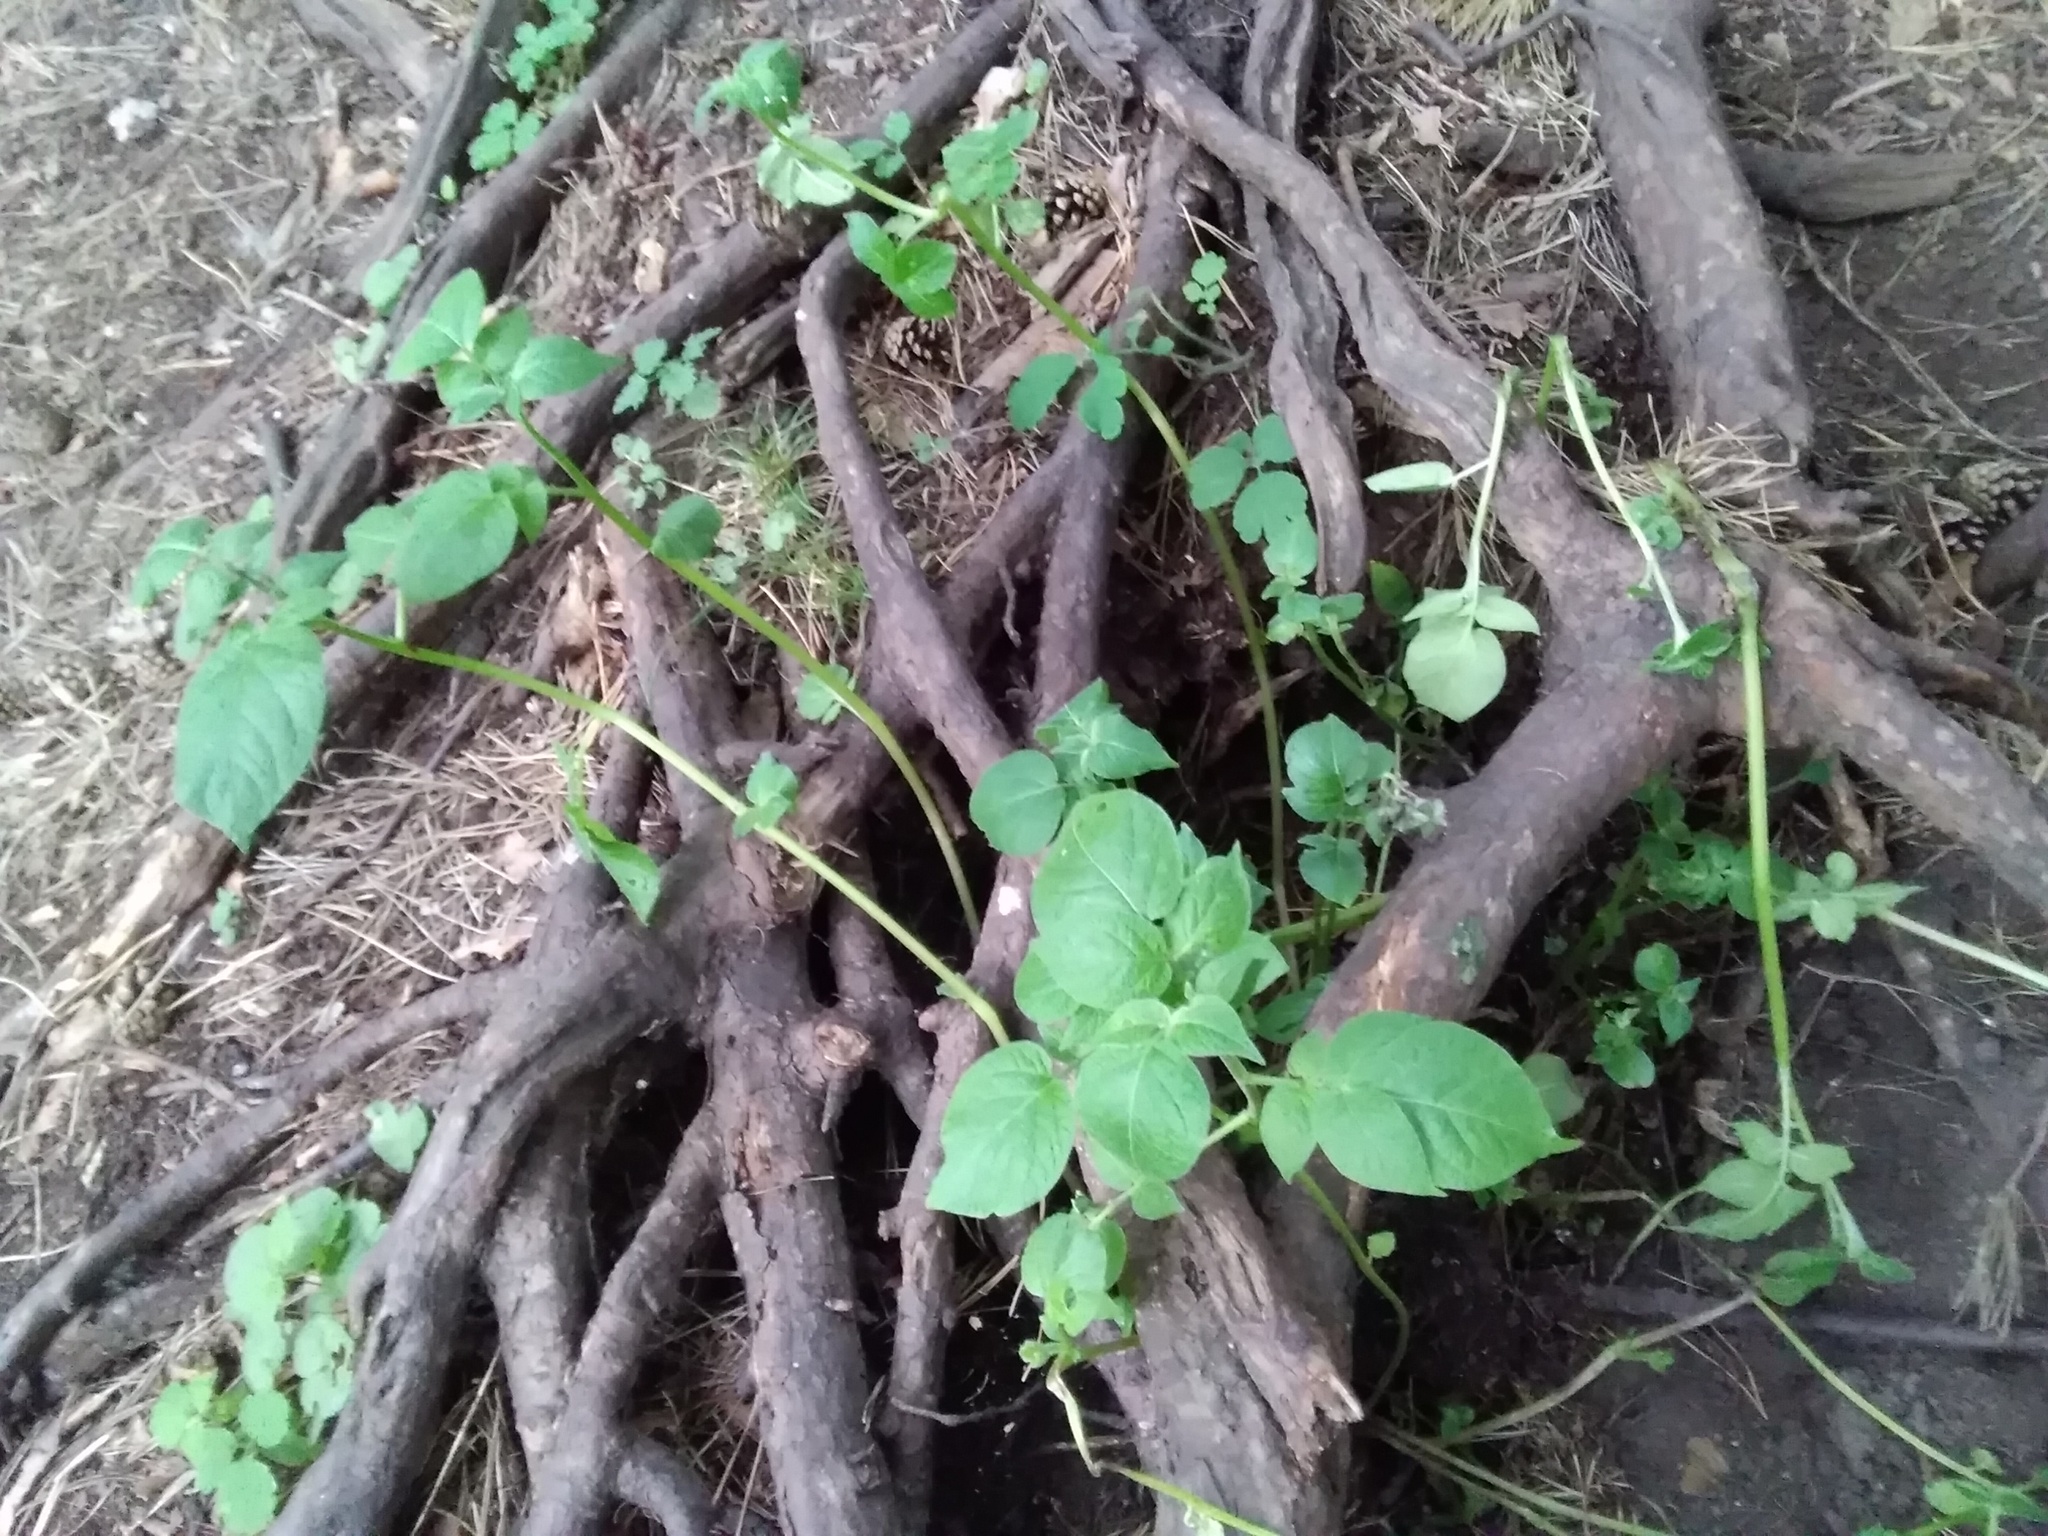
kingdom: Plantae
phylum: Tracheophyta
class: Magnoliopsida
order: Solanales
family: Solanaceae
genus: Solanum
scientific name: Solanum tuberosum
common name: Potato
